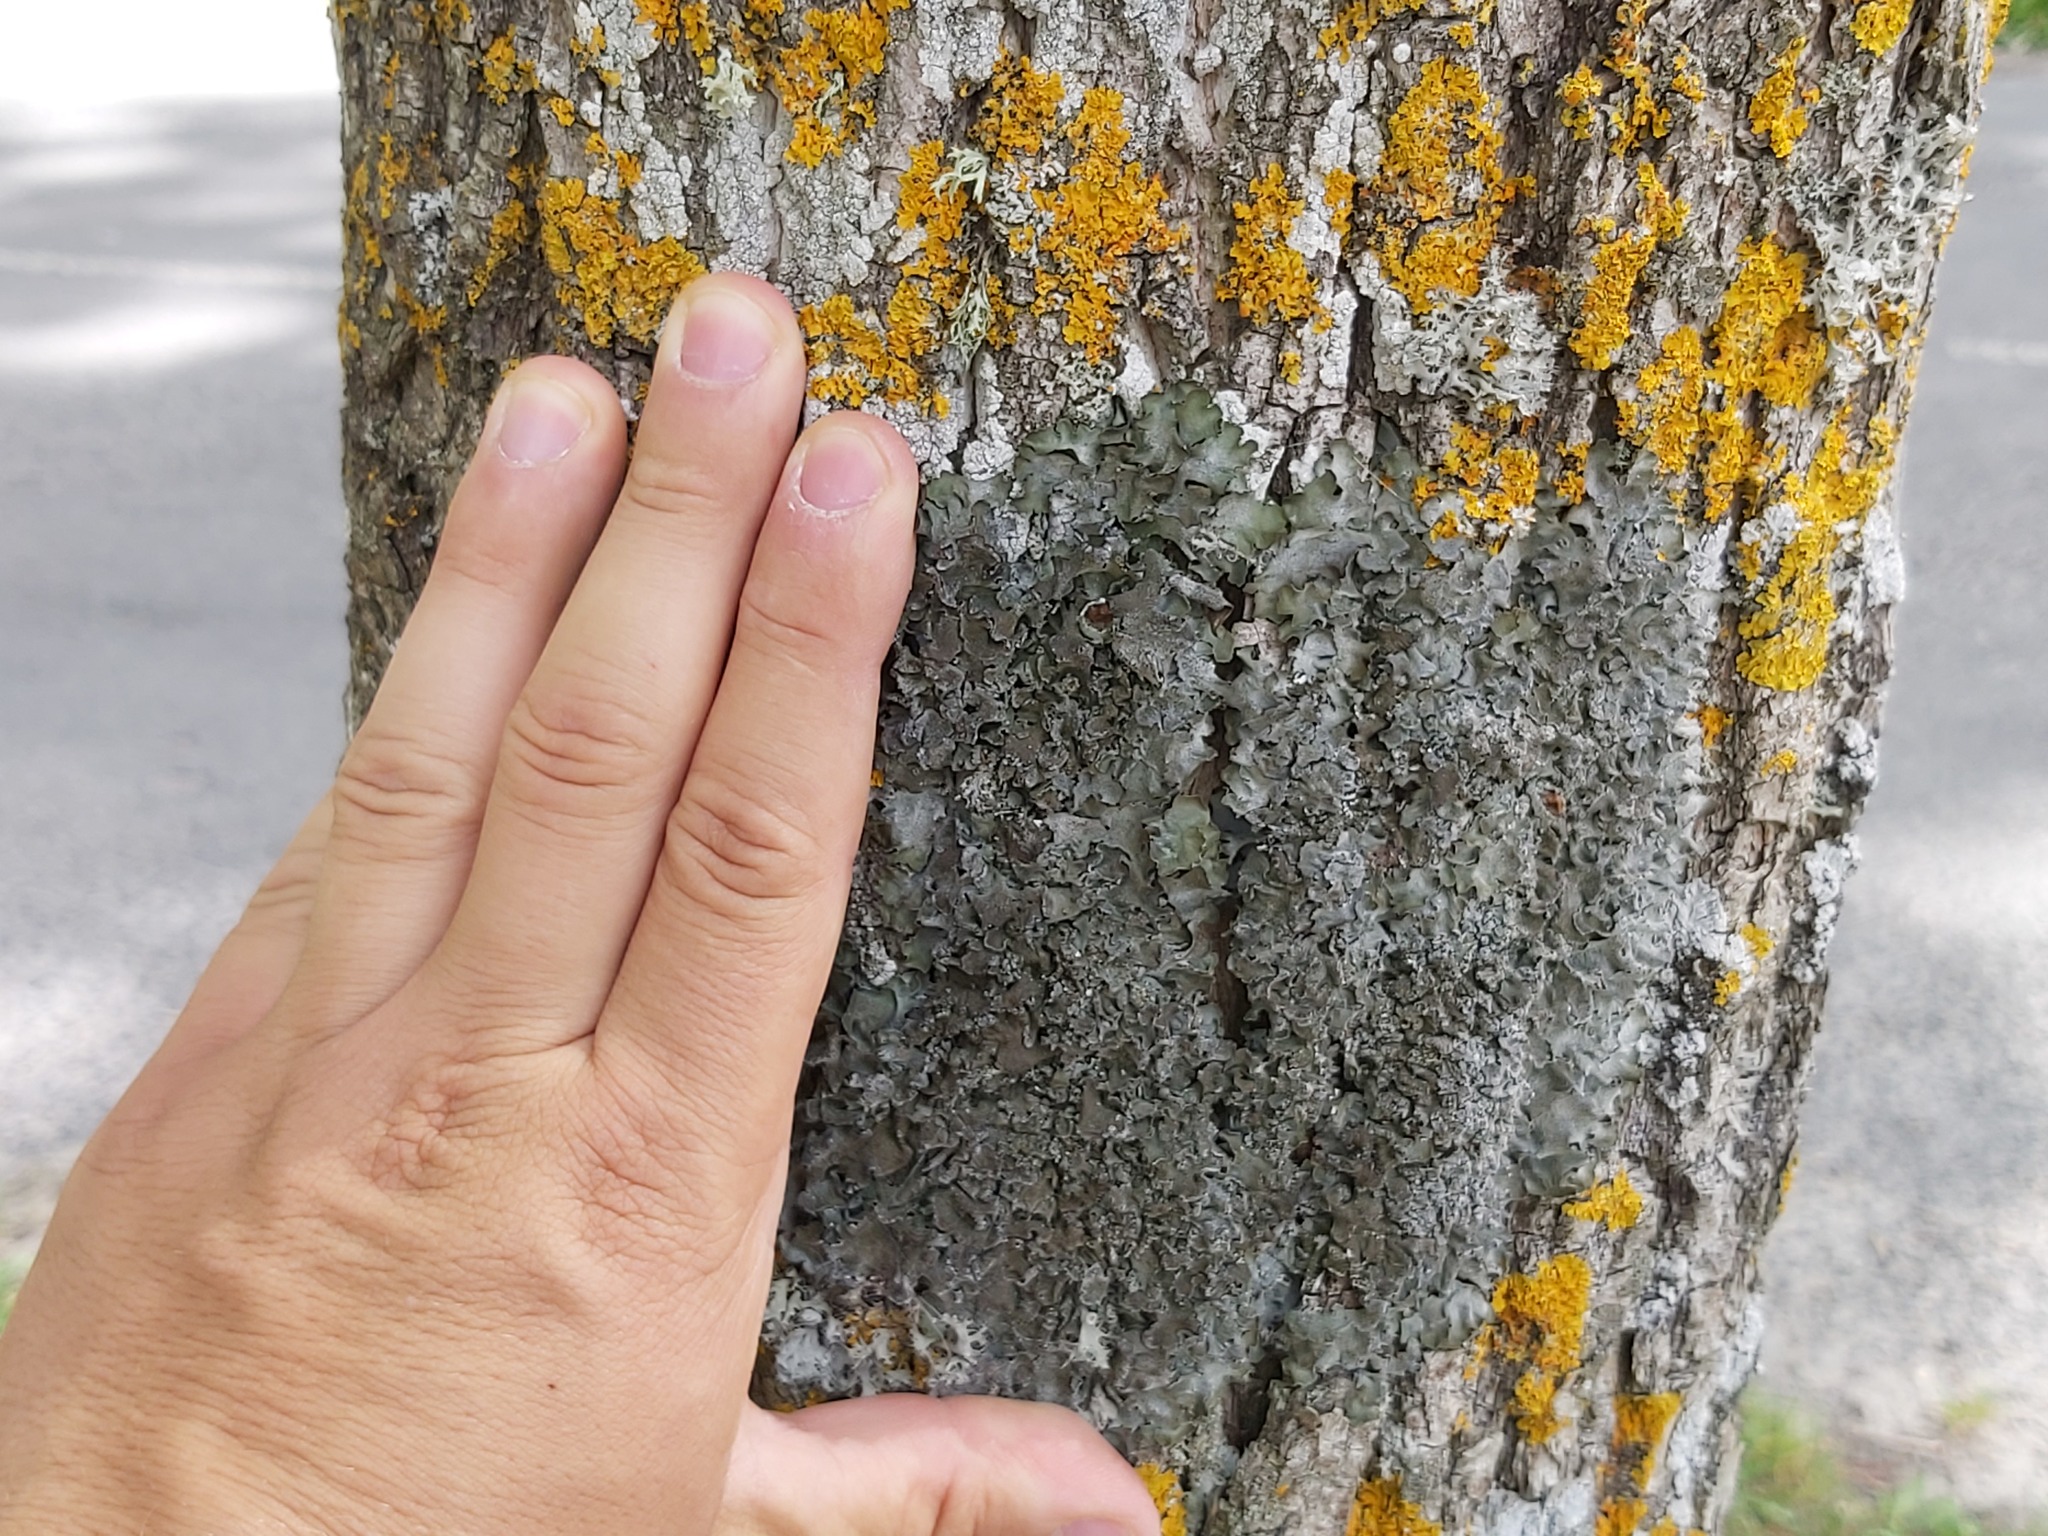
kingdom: Fungi
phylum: Ascomycota
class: Lecanoromycetes
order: Lecanorales
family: Parmeliaceae
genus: Pleurosticta
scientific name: Pleurosticta acetabulum
